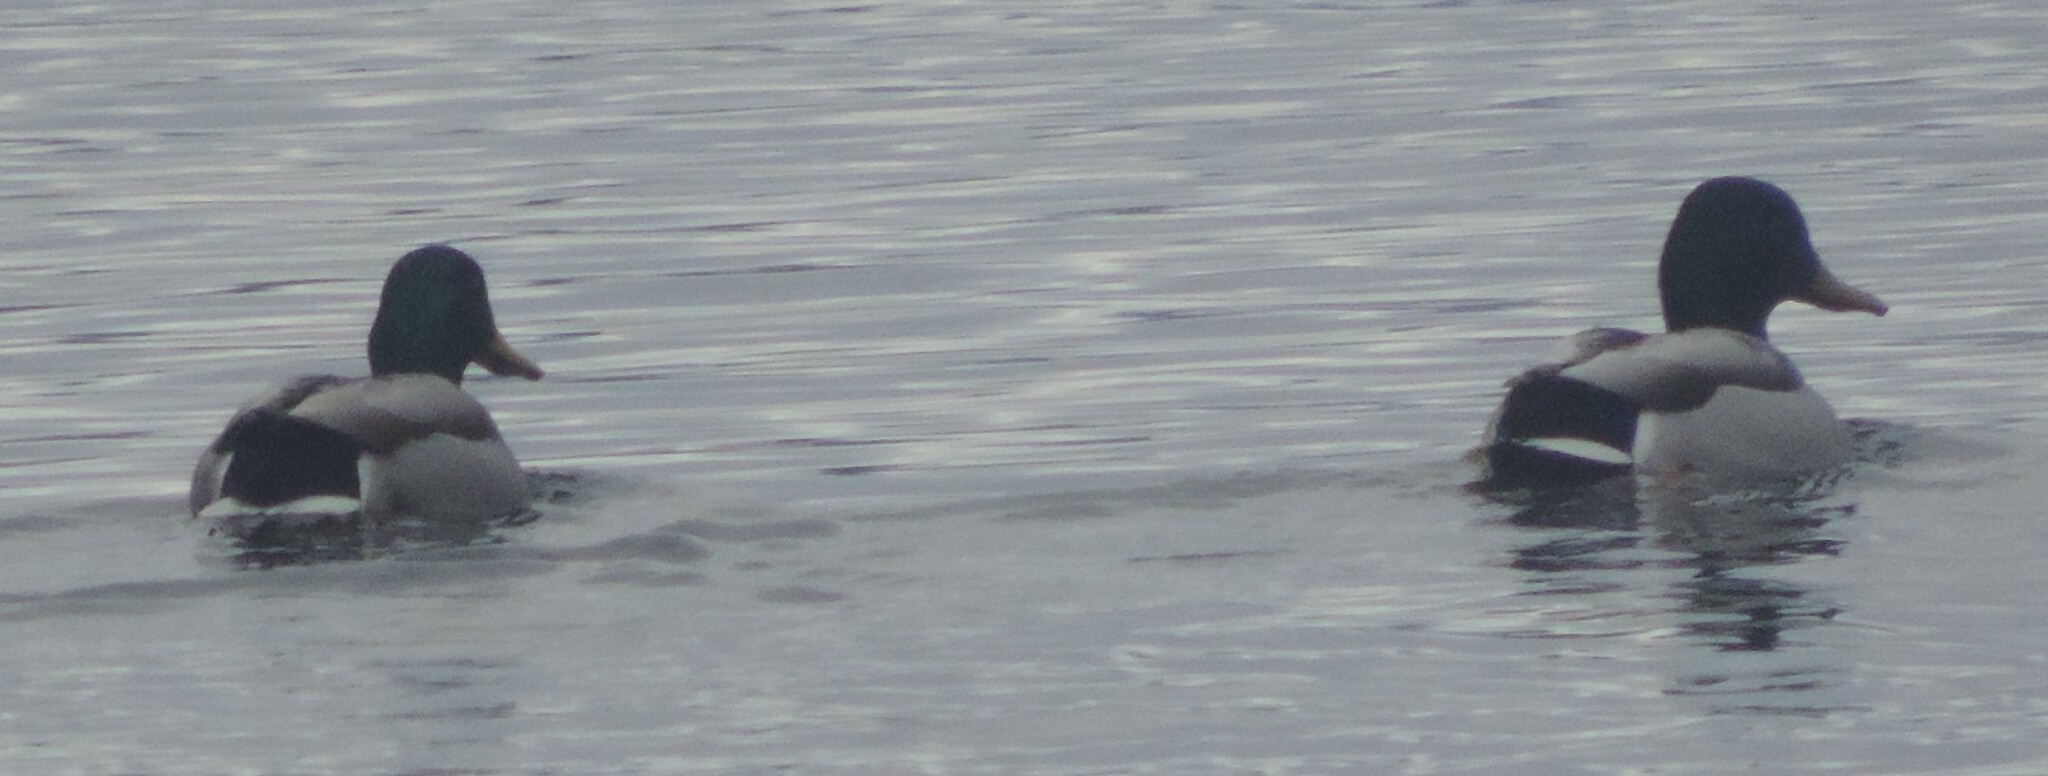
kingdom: Animalia
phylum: Chordata
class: Aves
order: Anseriformes
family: Anatidae
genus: Anas
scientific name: Anas platyrhynchos
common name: Mallard
